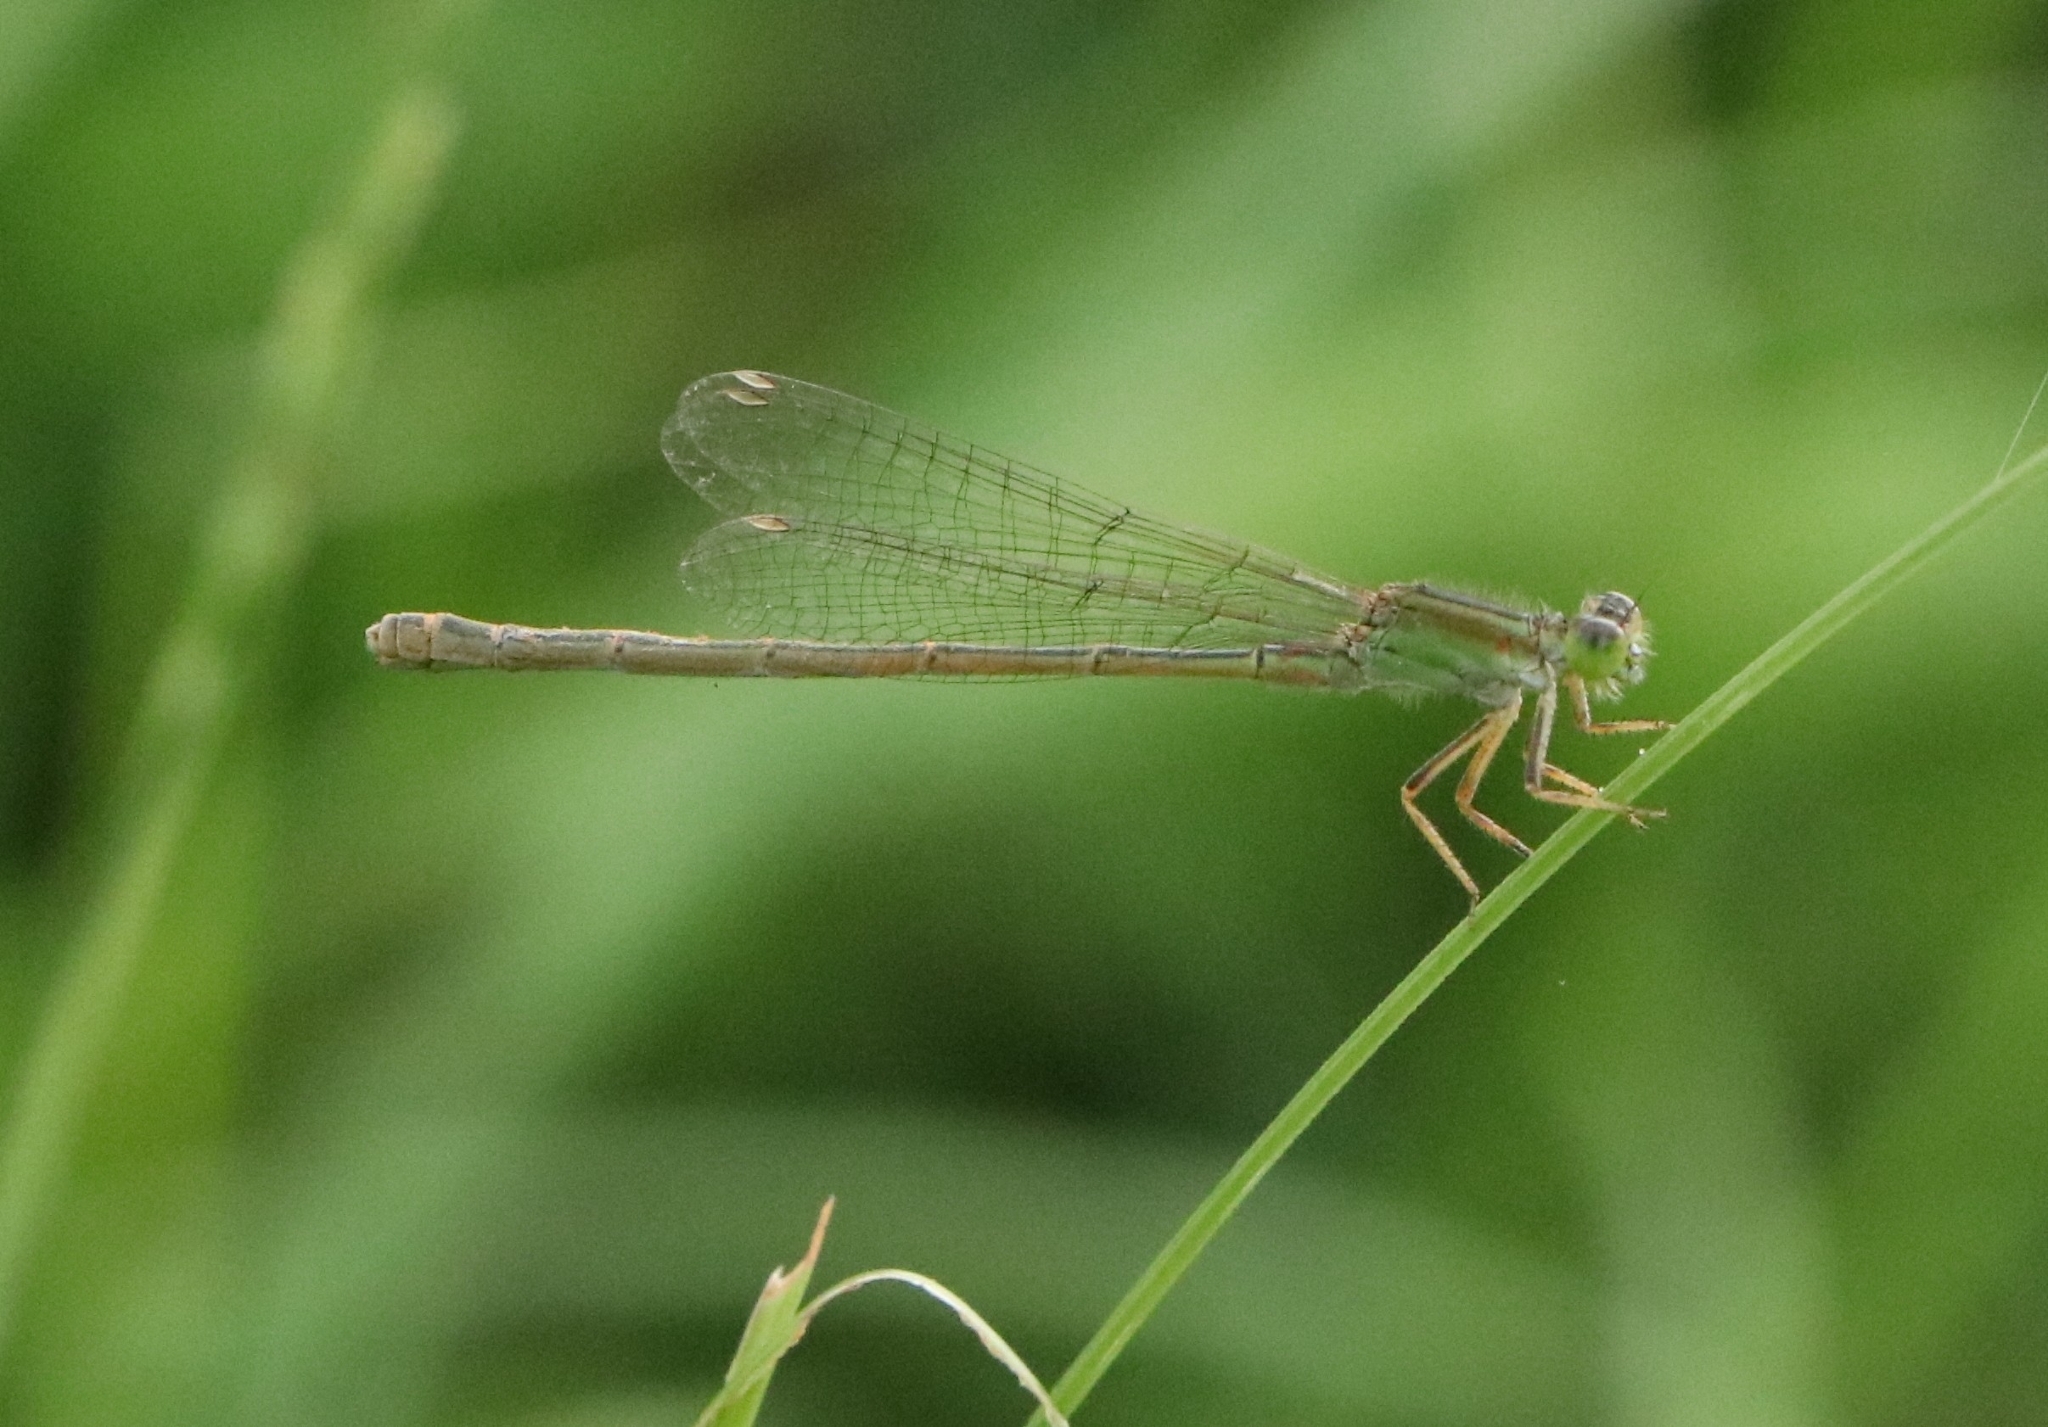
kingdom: Animalia
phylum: Arthropoda
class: Insecta
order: Odonata
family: Coenagrionidae
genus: Ischnura
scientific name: Ischnura senegalensis
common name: Tropical bluetail
